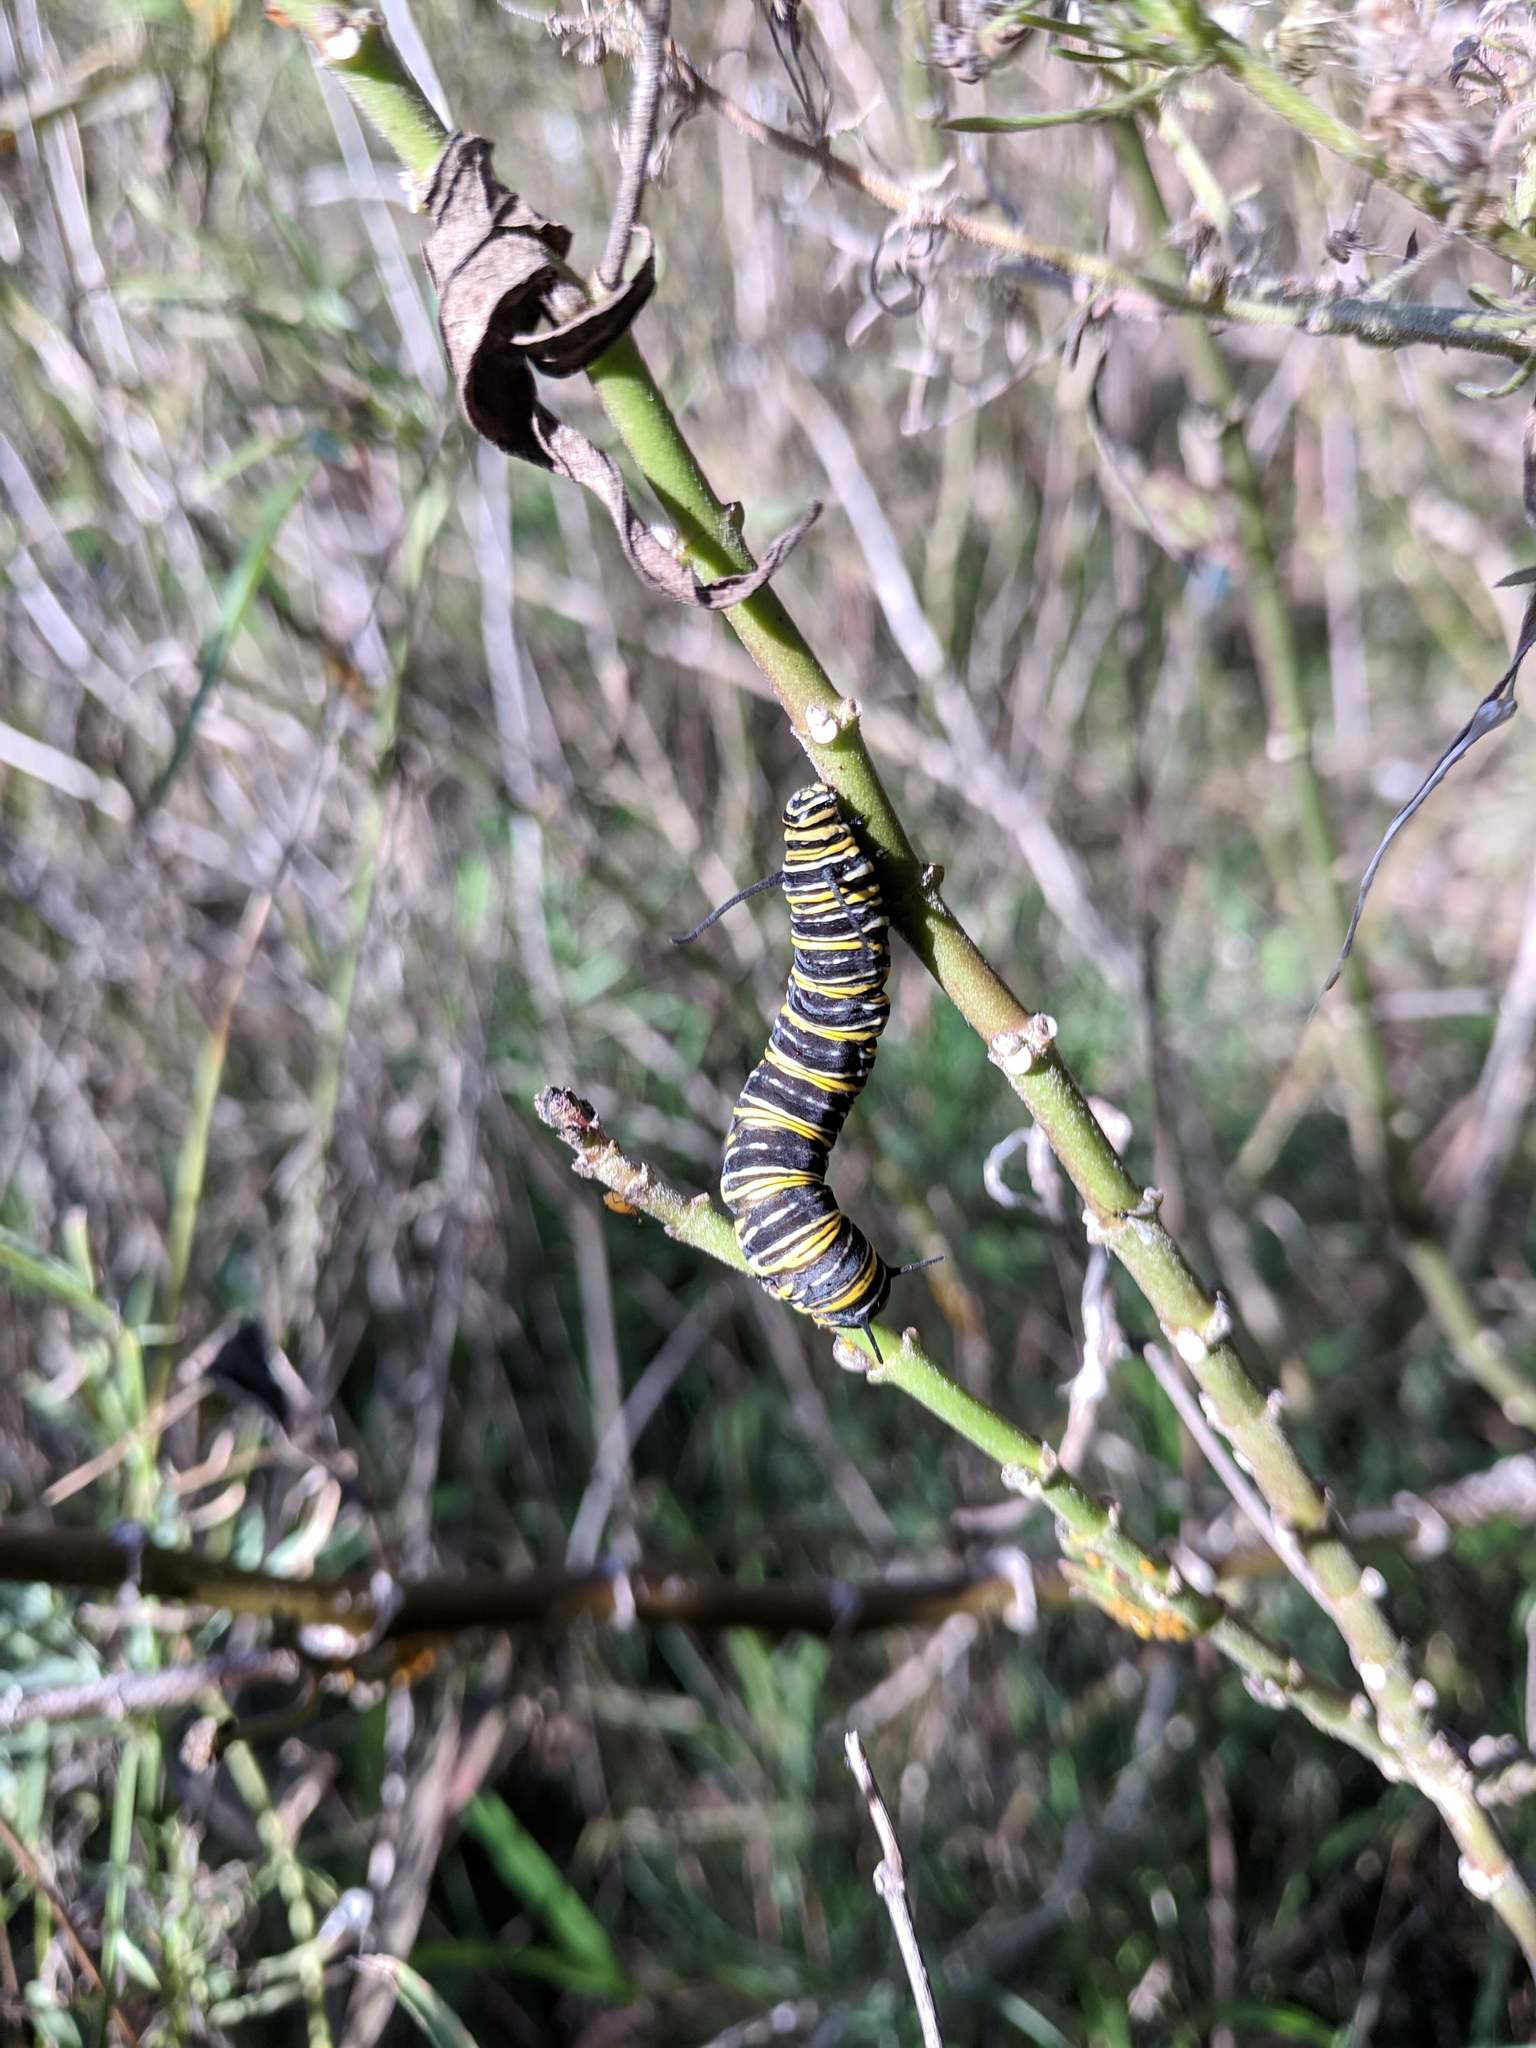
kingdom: Animalia
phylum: Arthropoda
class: Insecta
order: Lepidoptera
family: Nymphalidae
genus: Danaus
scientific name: Danaus plexippus
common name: Monarch
